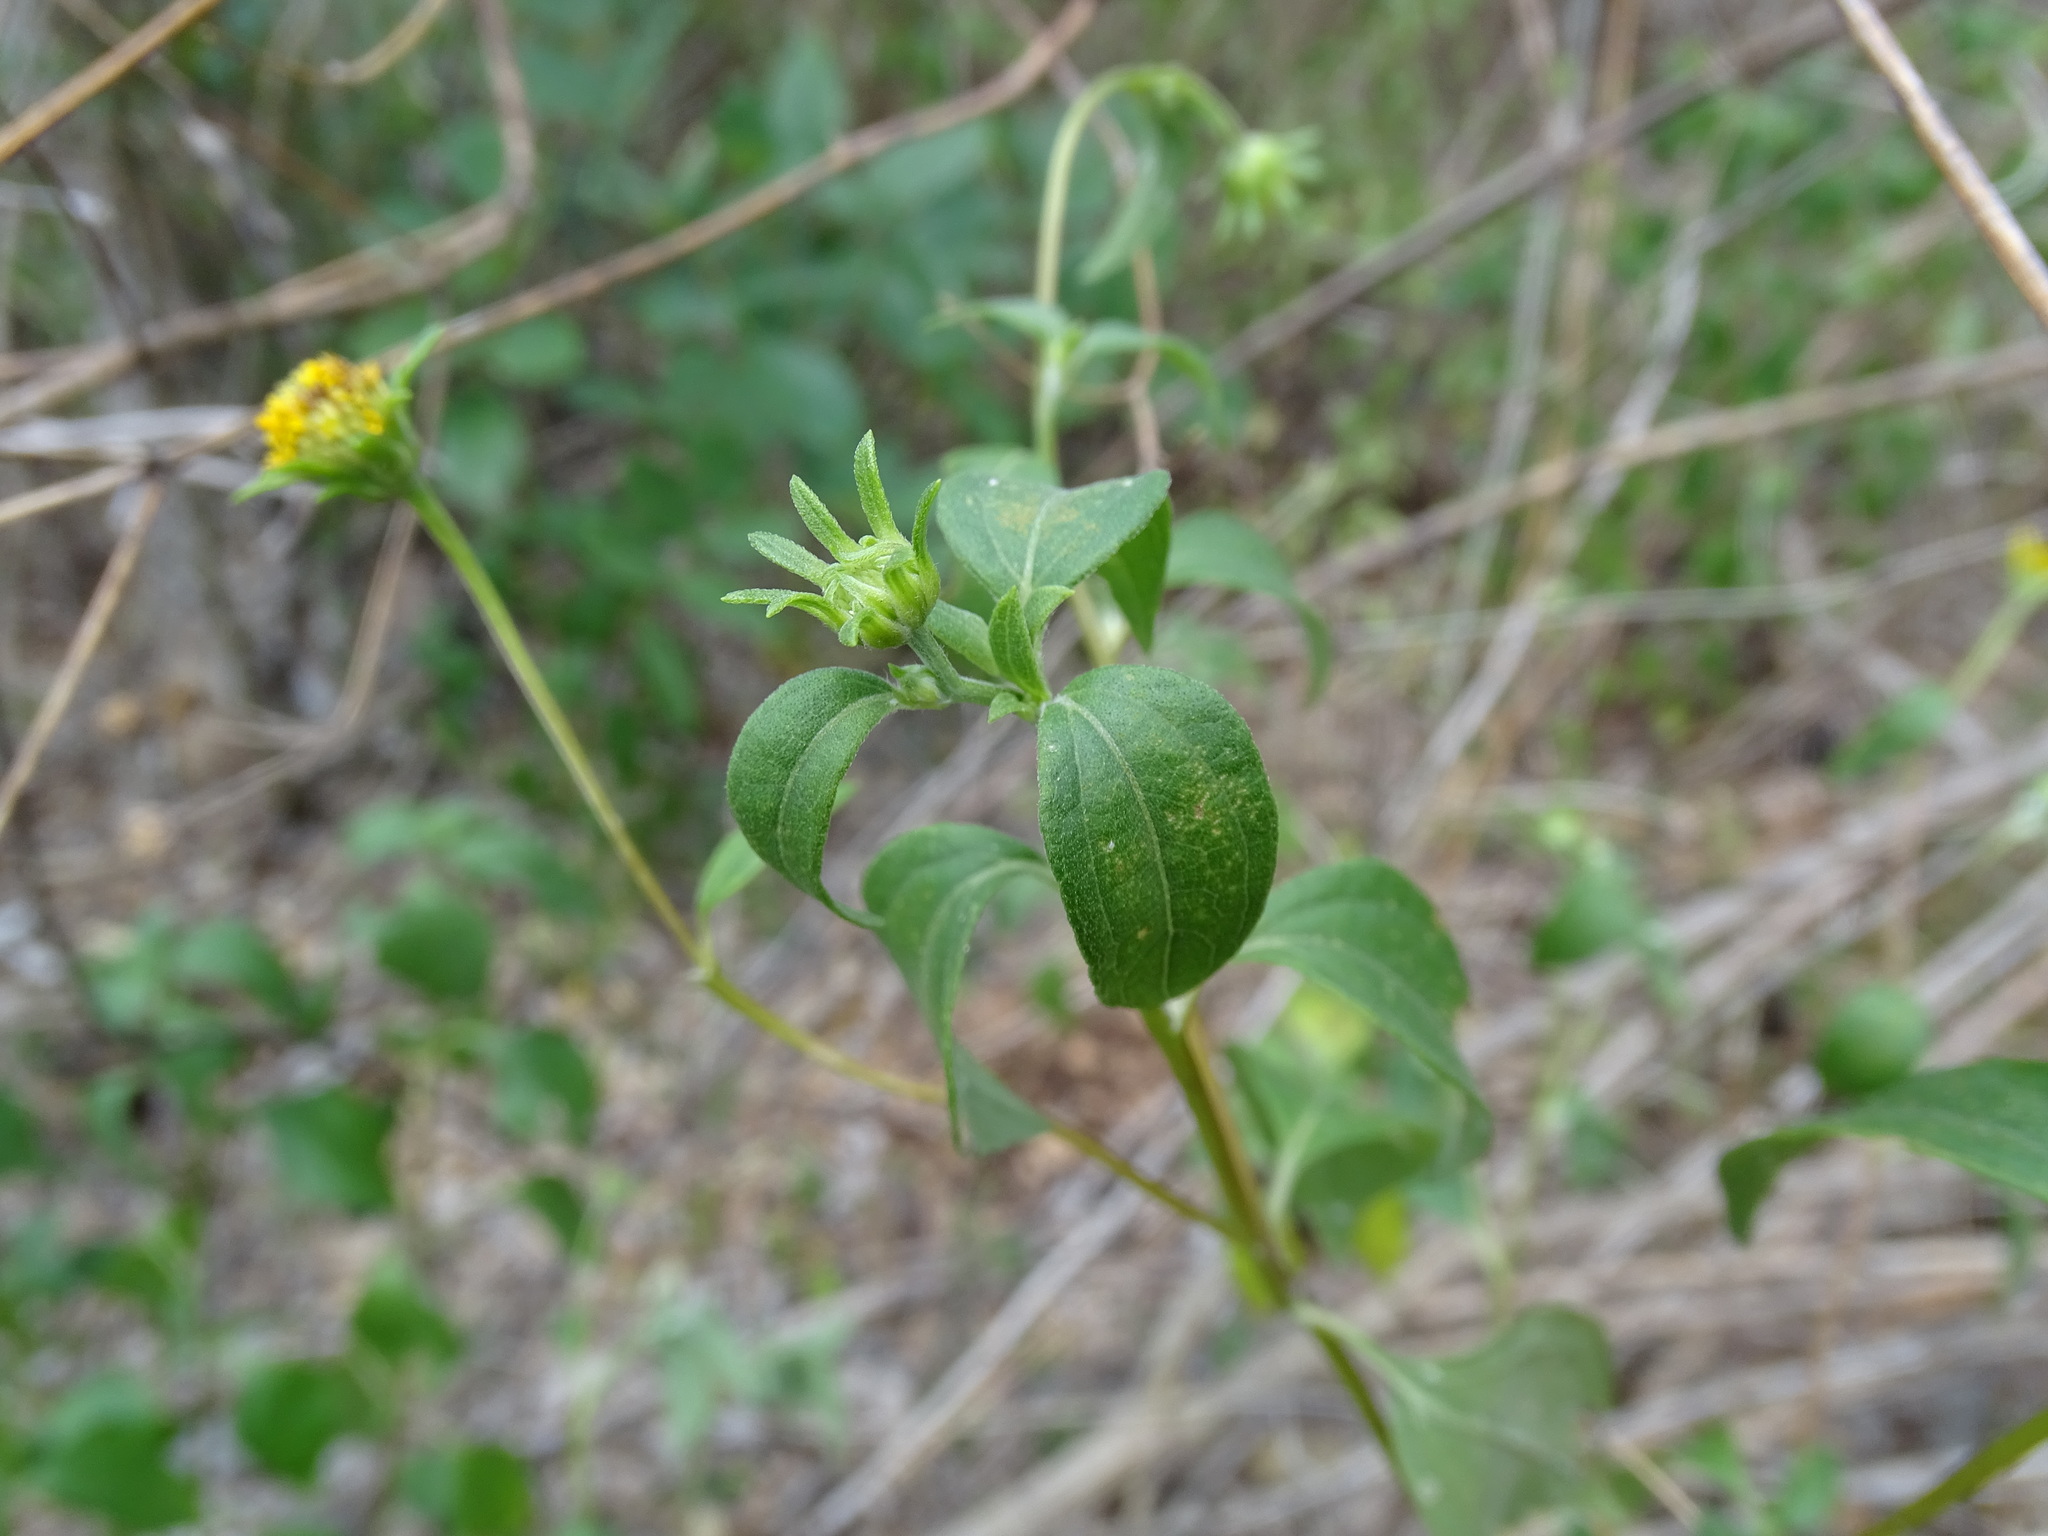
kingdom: Plantae
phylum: Tracheophyta
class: Magnoliopsida
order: Asterales
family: Asteraceae
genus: Viguiera
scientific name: Viguiera dentata
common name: Toothleaf
